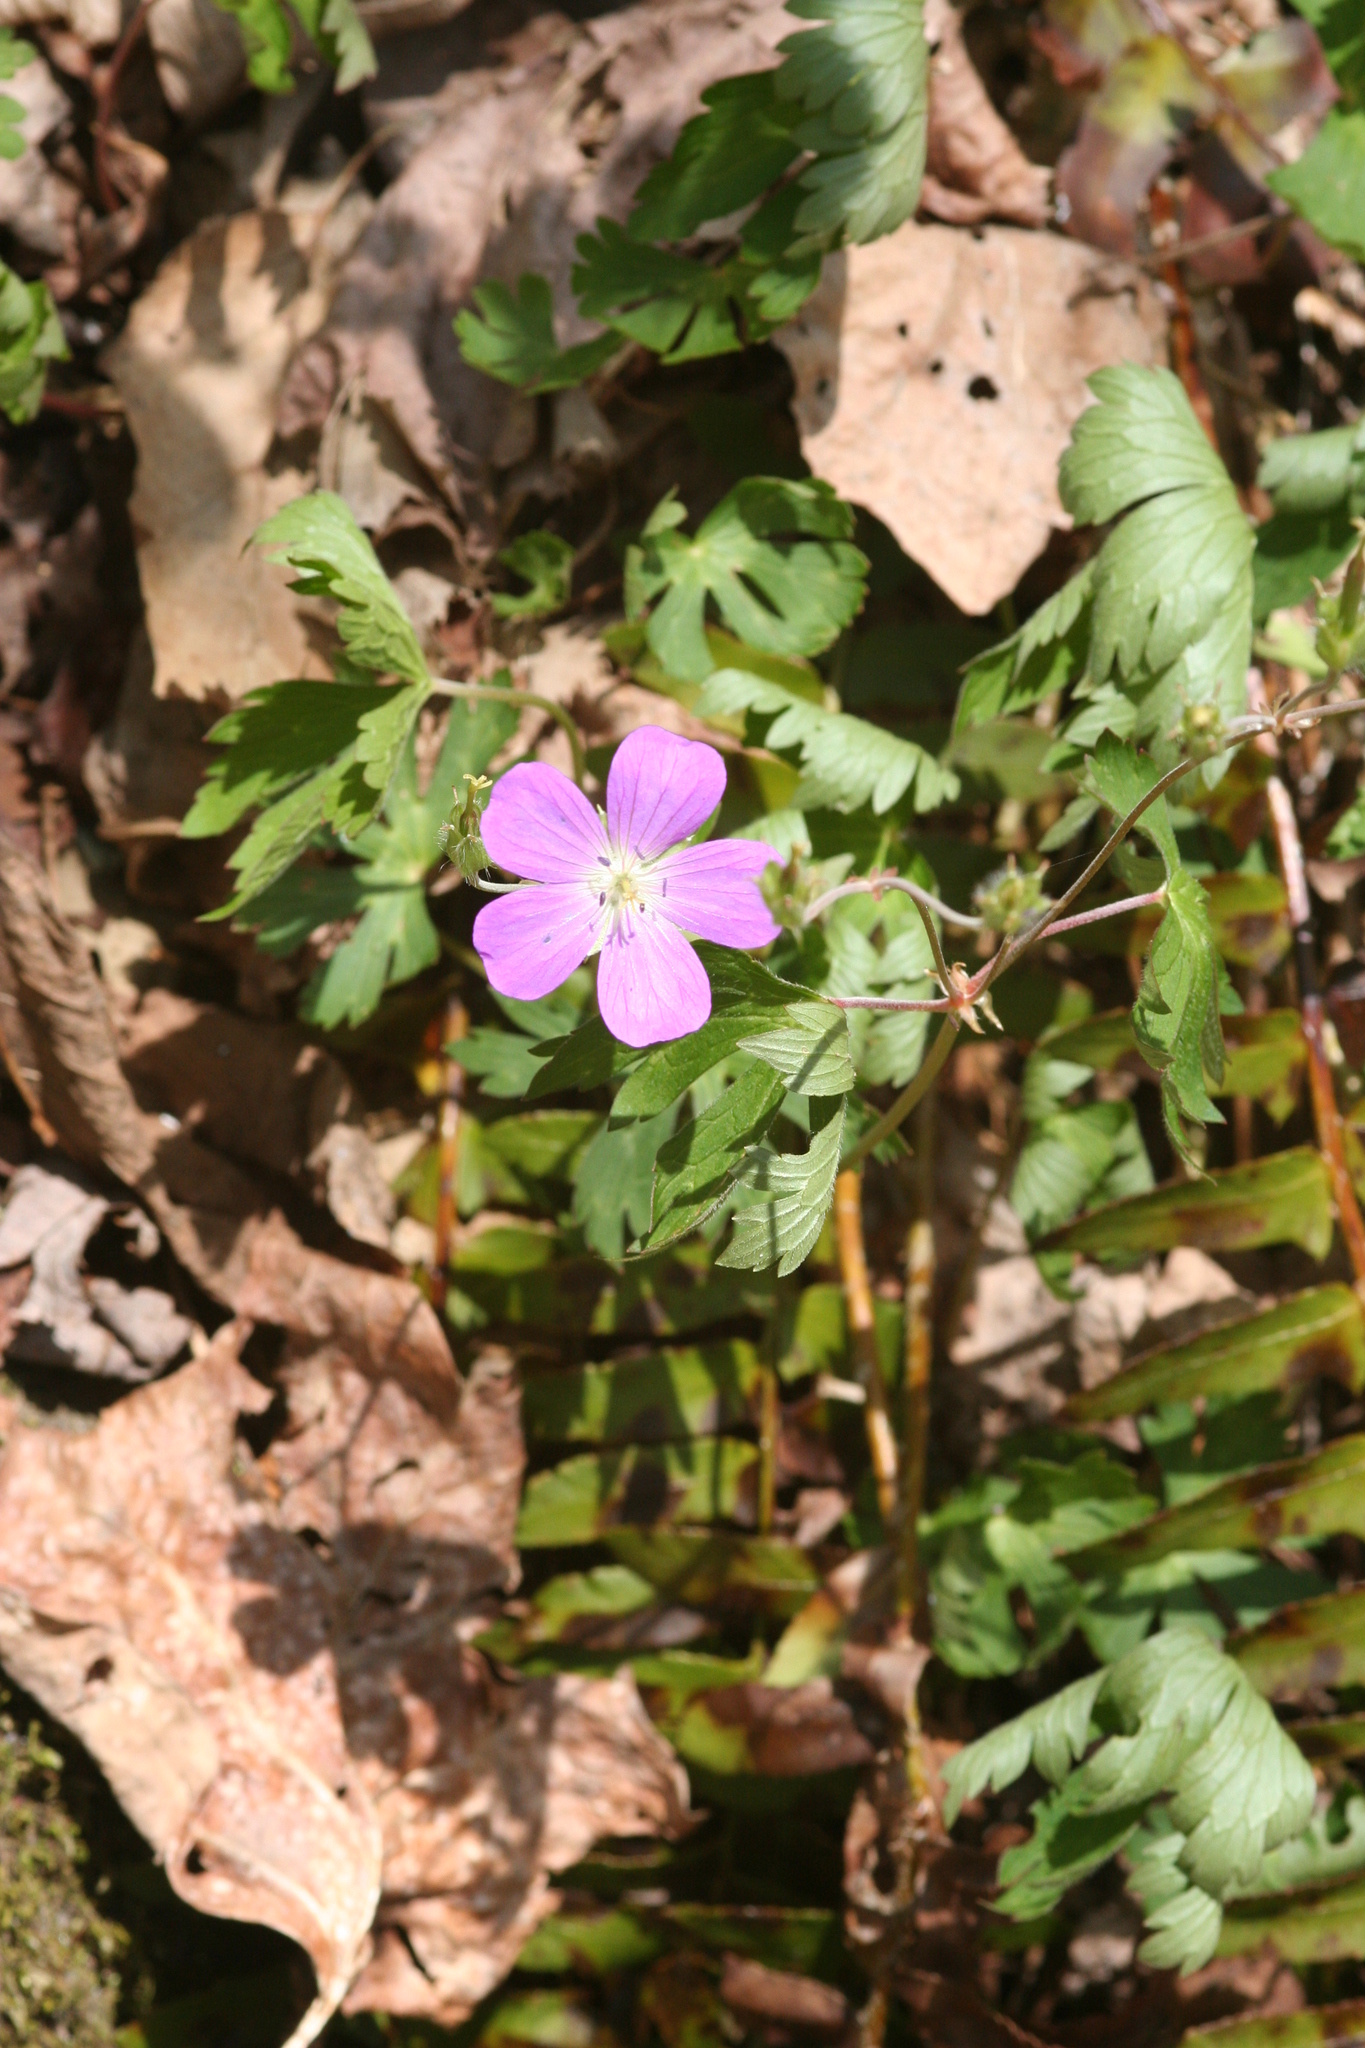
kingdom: Plantae
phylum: Tracheophyta
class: Magnoliopsida
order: Geraniales
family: Geraniaceae
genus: Geranium
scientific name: Geranium maculatum
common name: Spotted geranium
